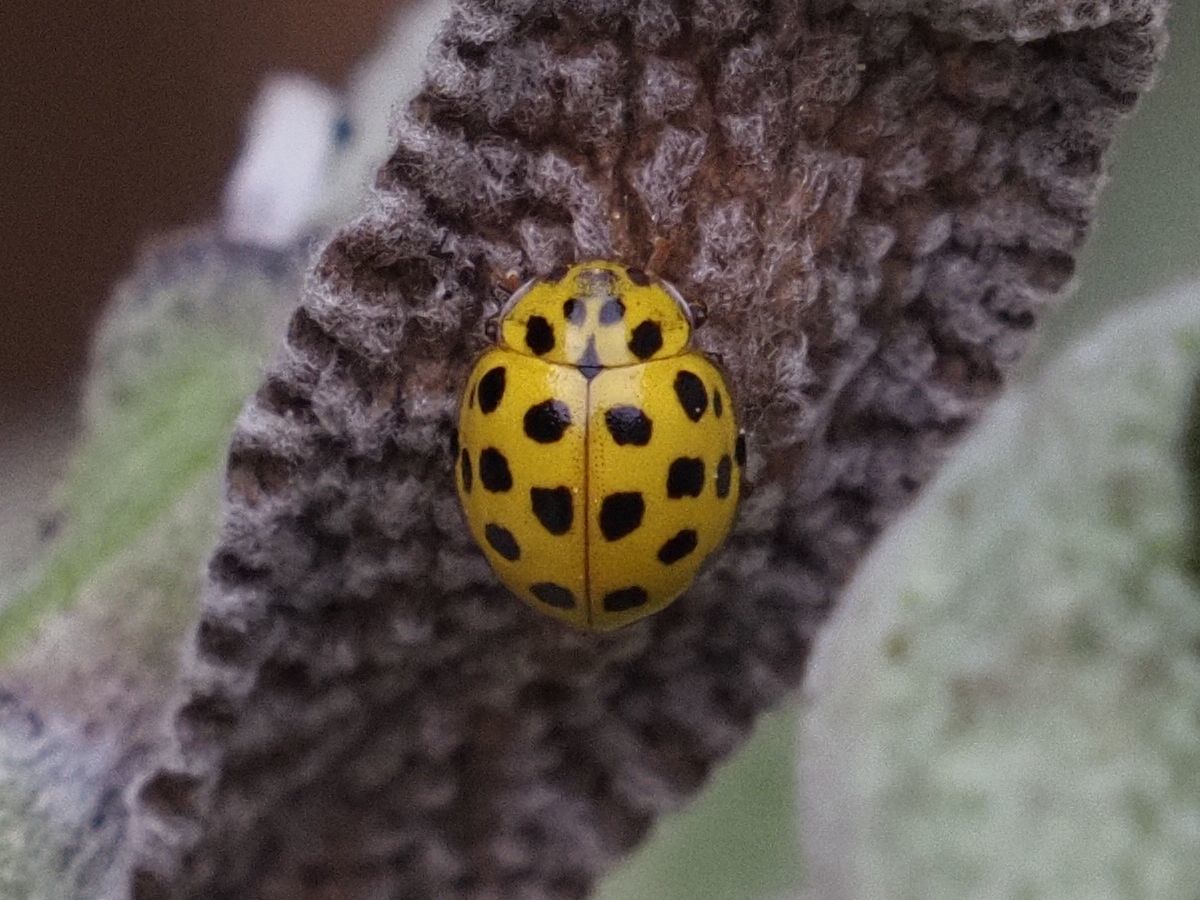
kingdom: Animalia
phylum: Arthropoda
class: Insecta
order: Coleoptera
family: Coccinellidae
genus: Psyllobora
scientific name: Psyllobora vigintiduopunctata
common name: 22-spot ladybird
